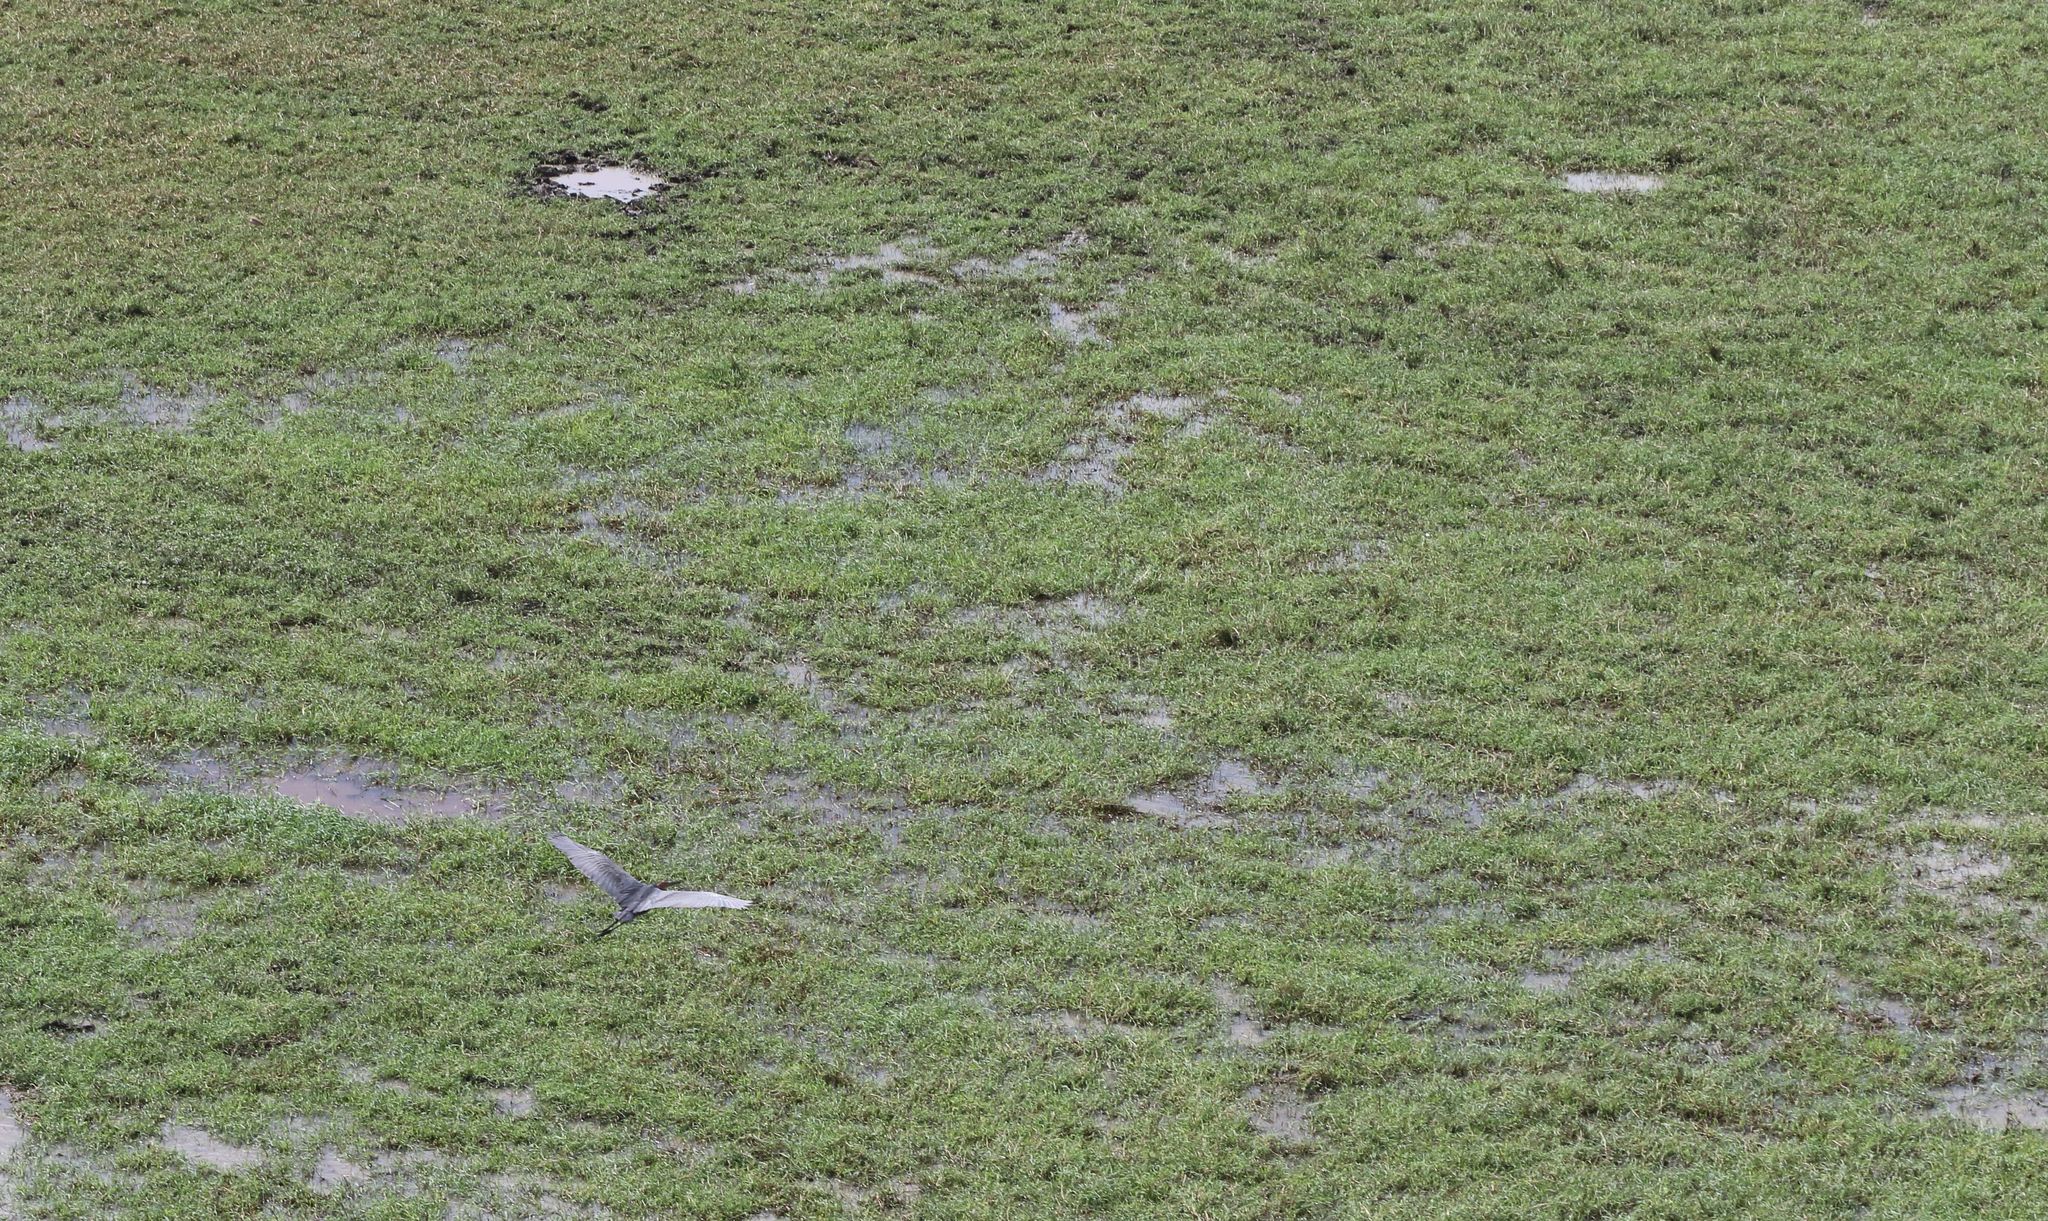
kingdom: Animalia
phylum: Chordata
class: Aves
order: Pelecaniformes
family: Ardeidae
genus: Ardea
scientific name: Ardea goliath
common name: Goliath heron
